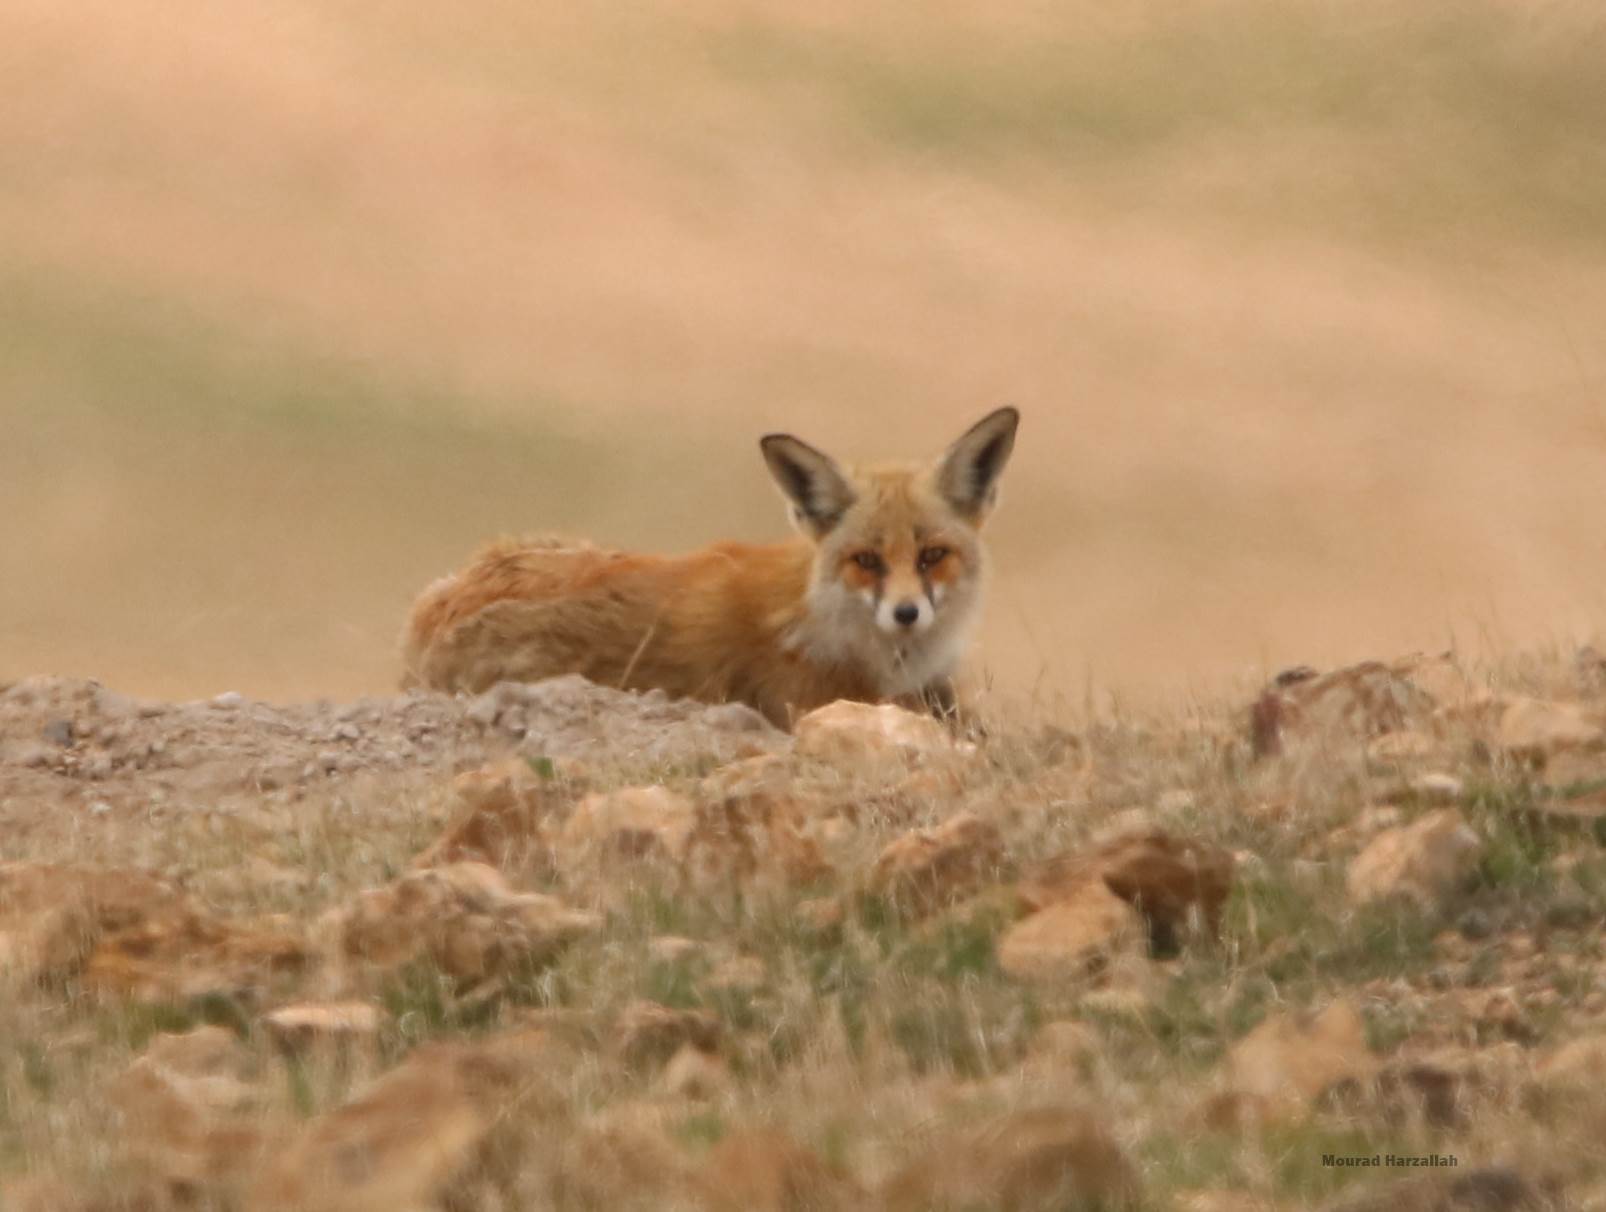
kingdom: Animalia
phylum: Chordata
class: Mammalia
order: Carnivora
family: Canidae
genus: Vulpes
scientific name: Vulpes vulpes
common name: Red fox
